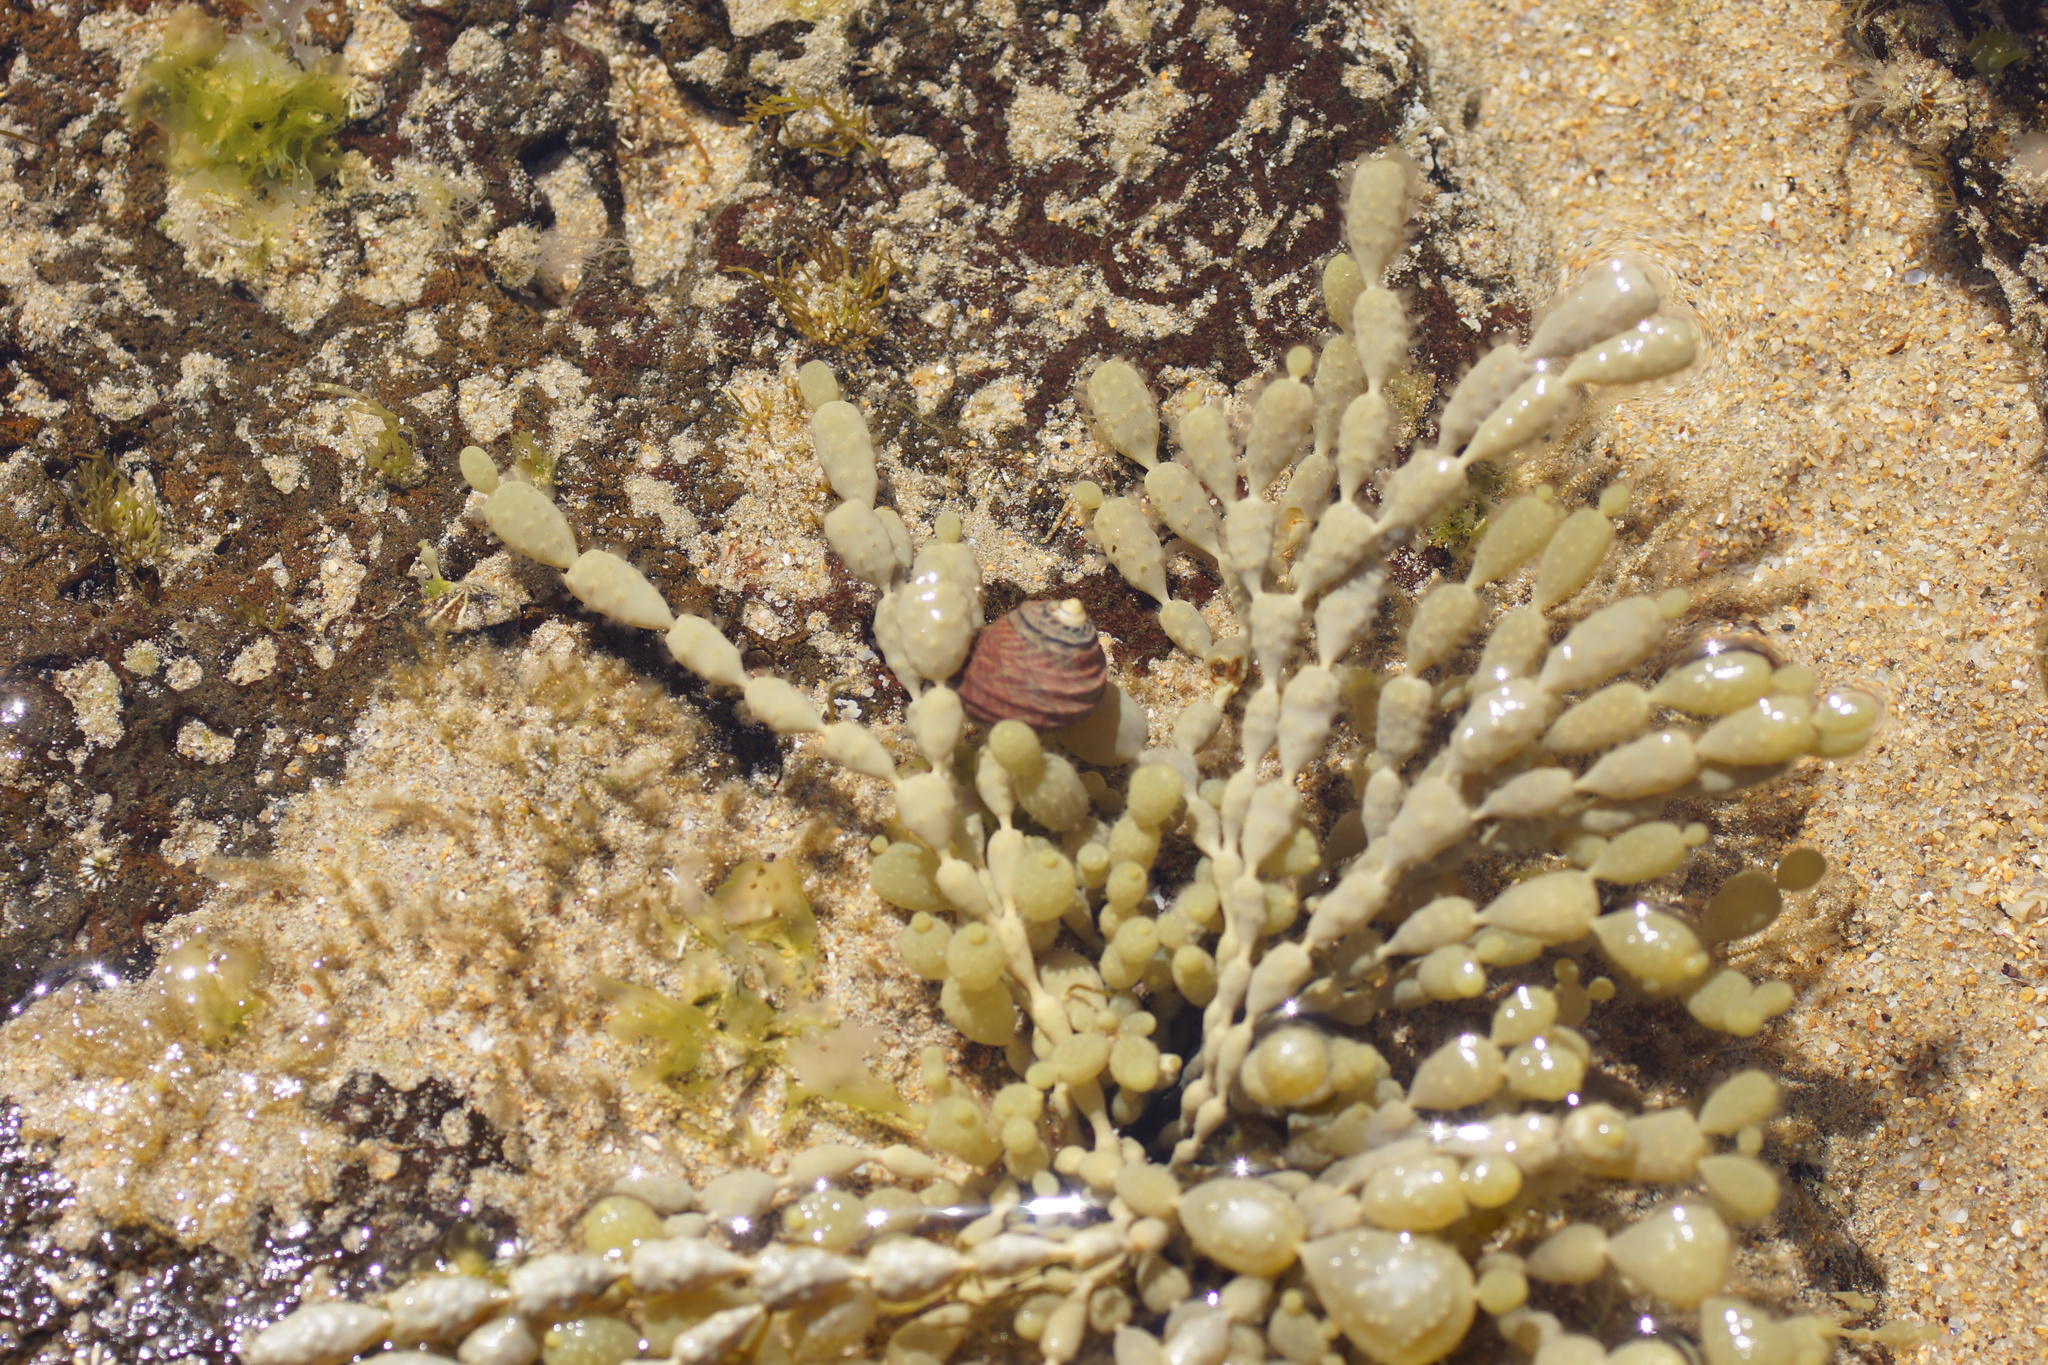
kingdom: Animalia
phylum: Mollusca
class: Gastropoda
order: Trochida
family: Trochidae
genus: Austrocochlea
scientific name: Austrocochlea constricta
